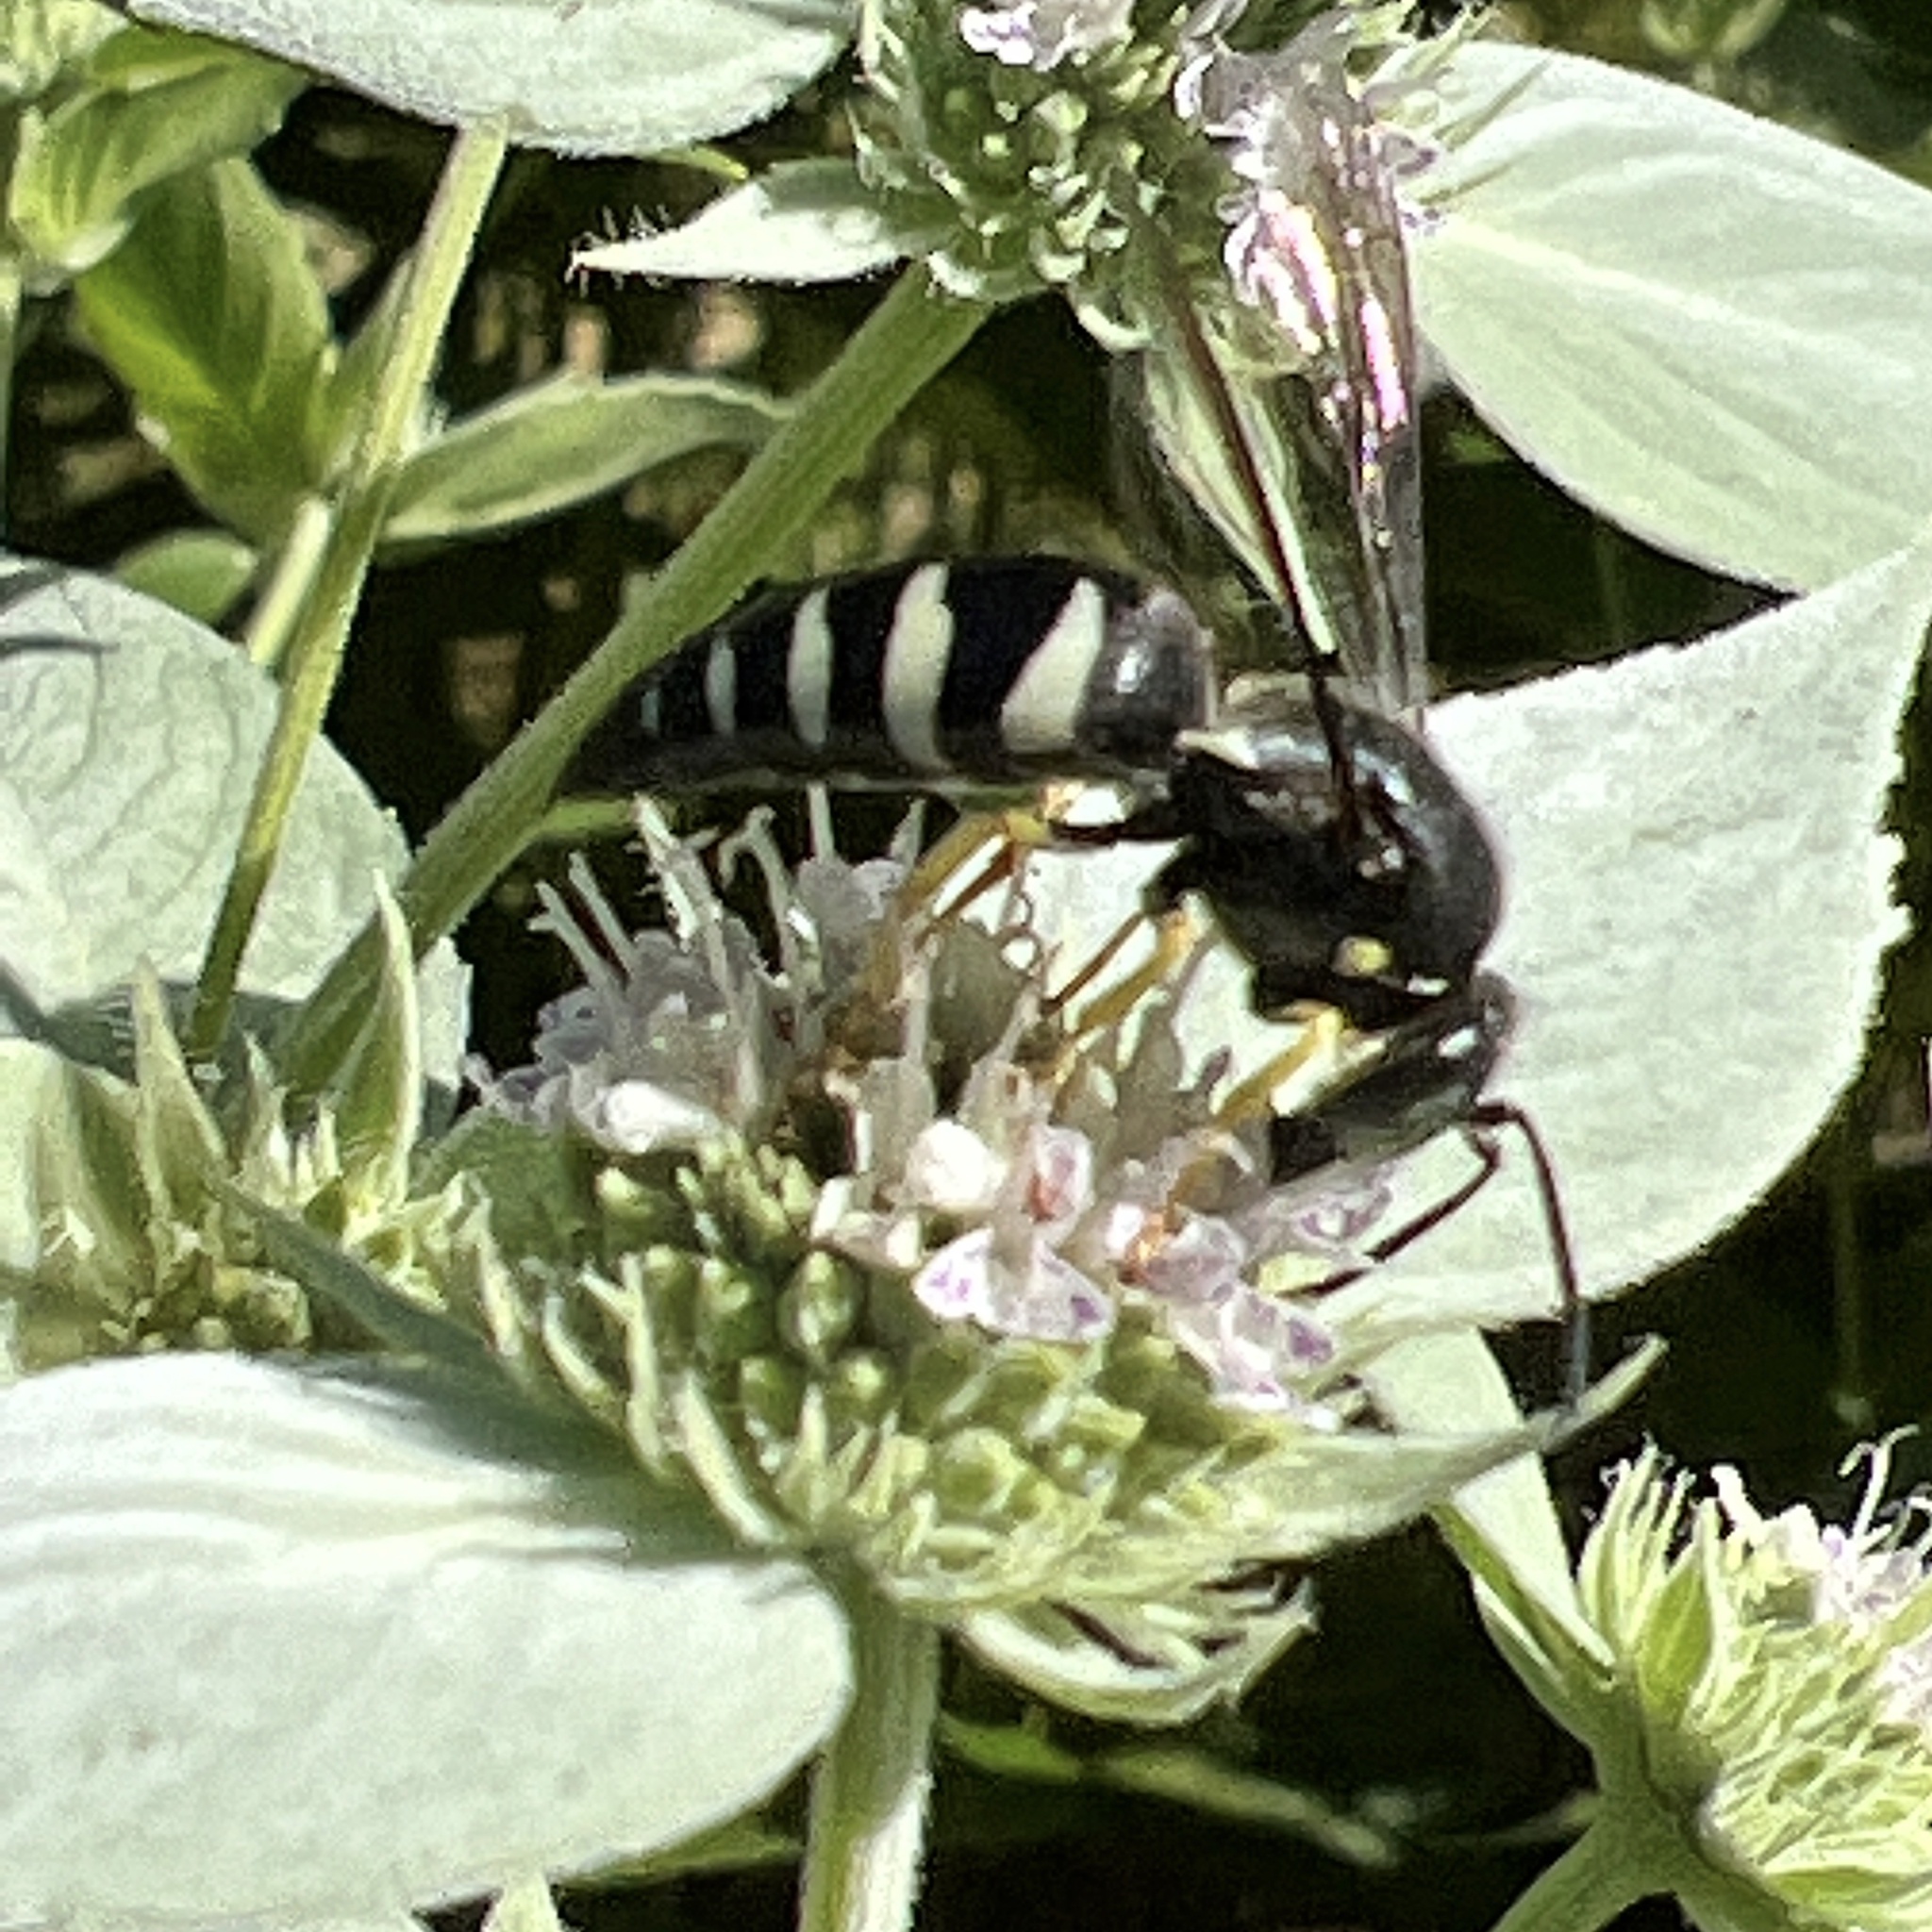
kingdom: Animalia
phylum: Arthropoda
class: Insecta
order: Hymenoptera
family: Crabronidae
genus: Bicyrtes
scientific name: Bicyrtes quadrifasciatus
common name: Four-banded stink bug hunter wasp
